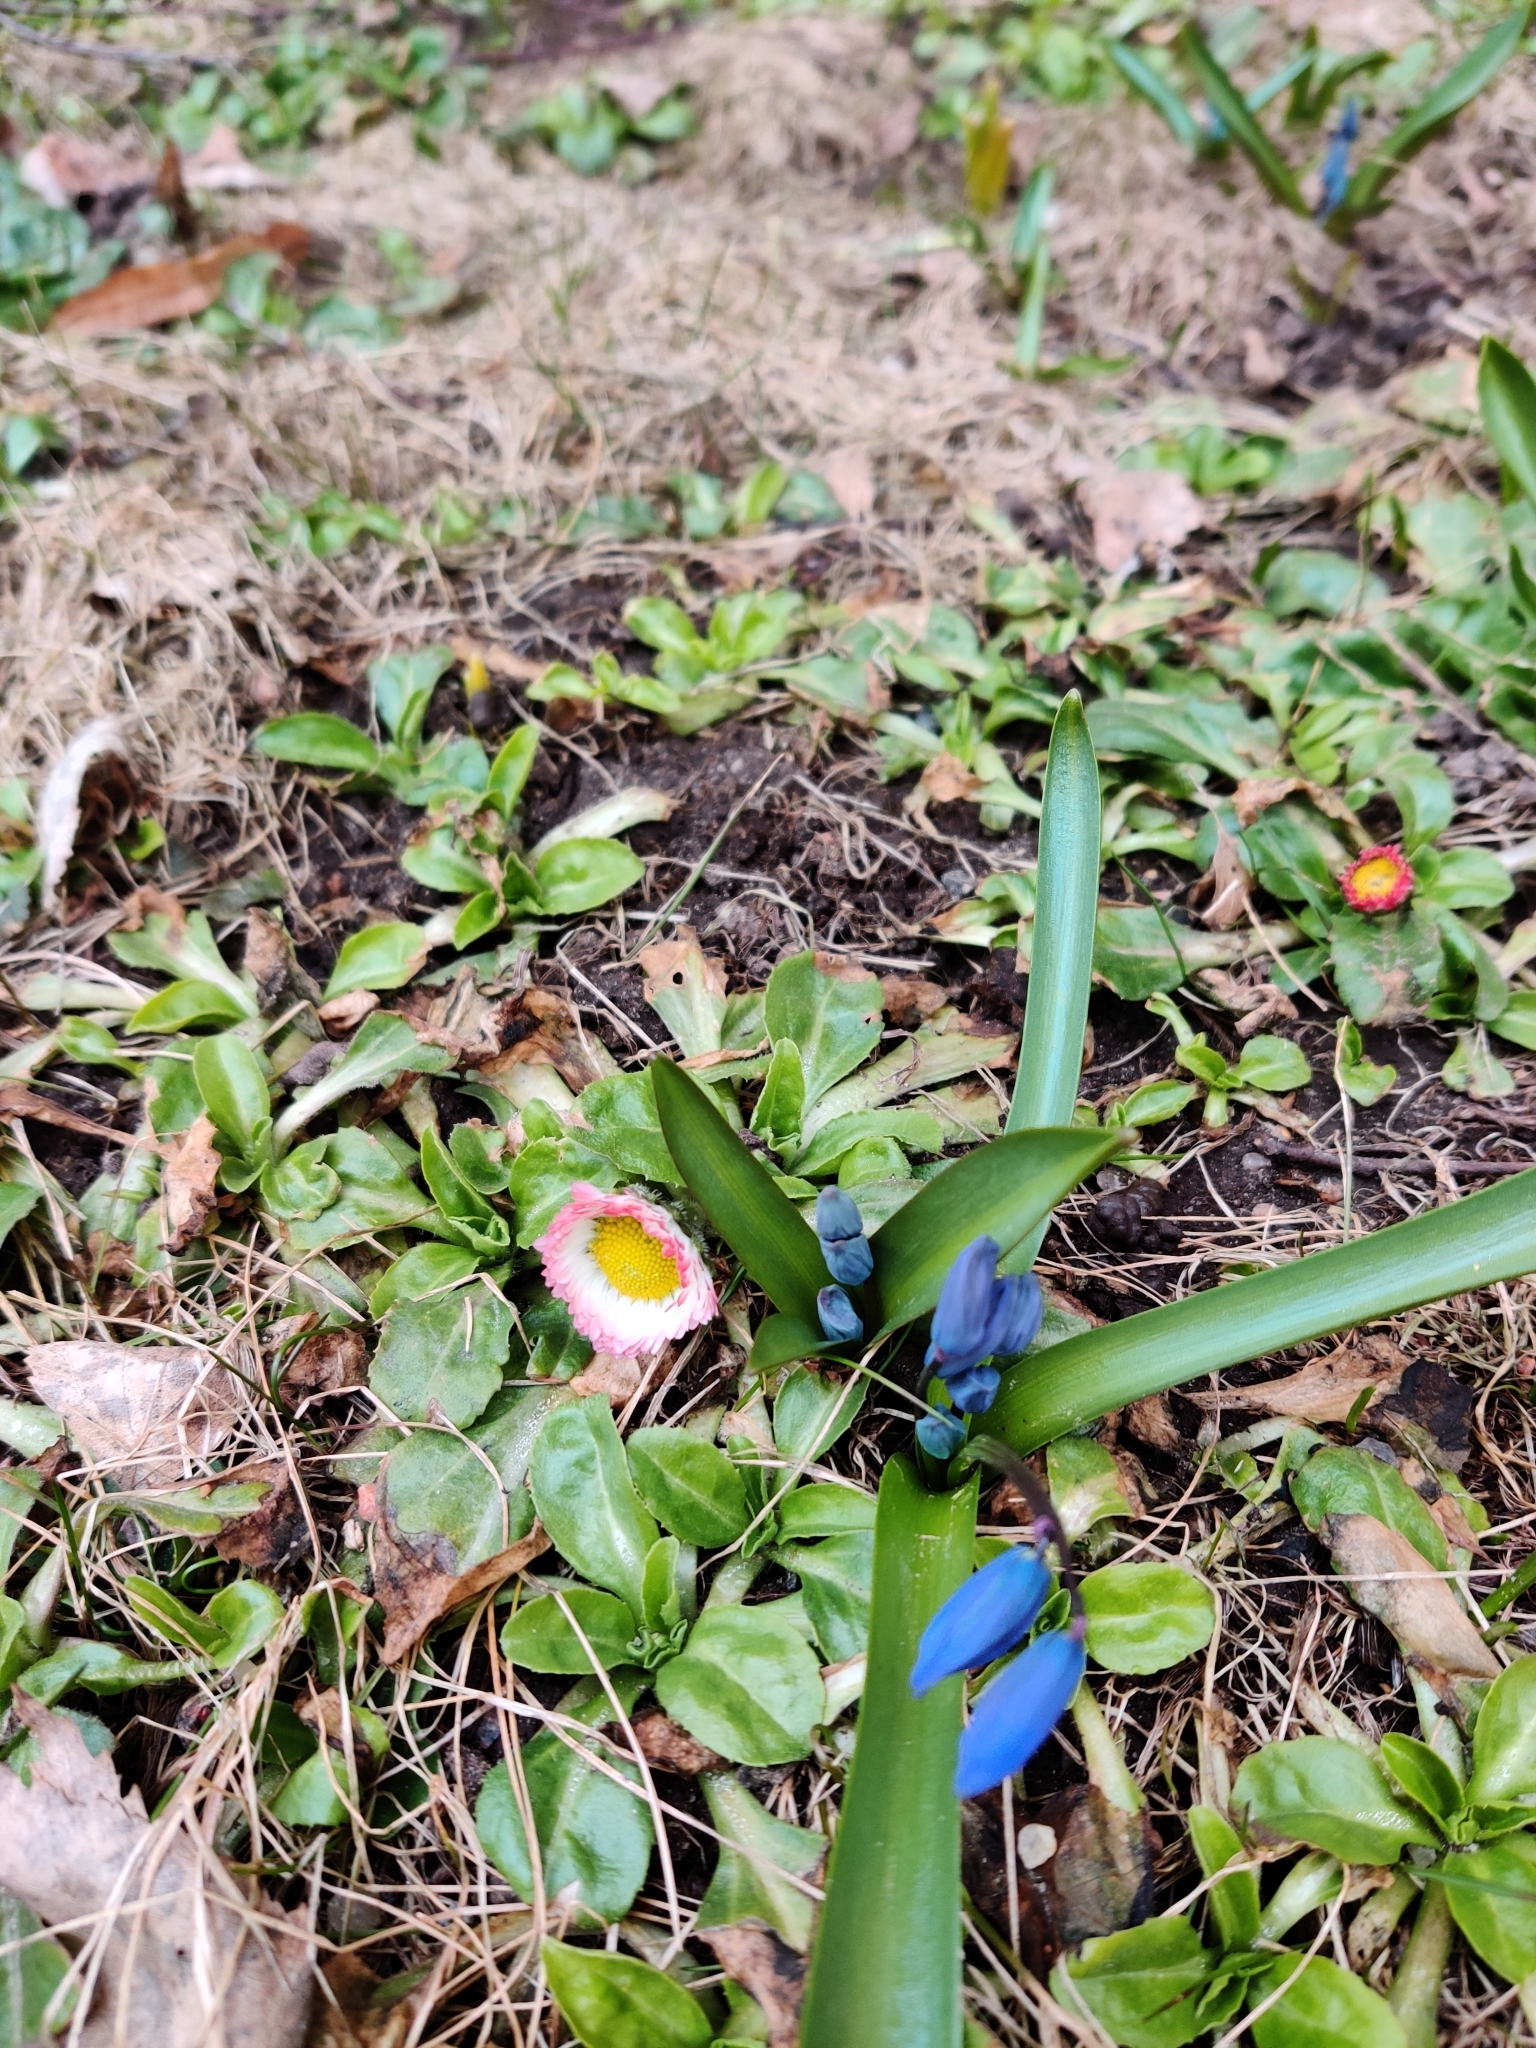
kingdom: Plantae
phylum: Tracheophyta
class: Liliopsida
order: Asparagales
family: Asparagaceae
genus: Scilla
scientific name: Scilla siberica
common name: Siberian squill
